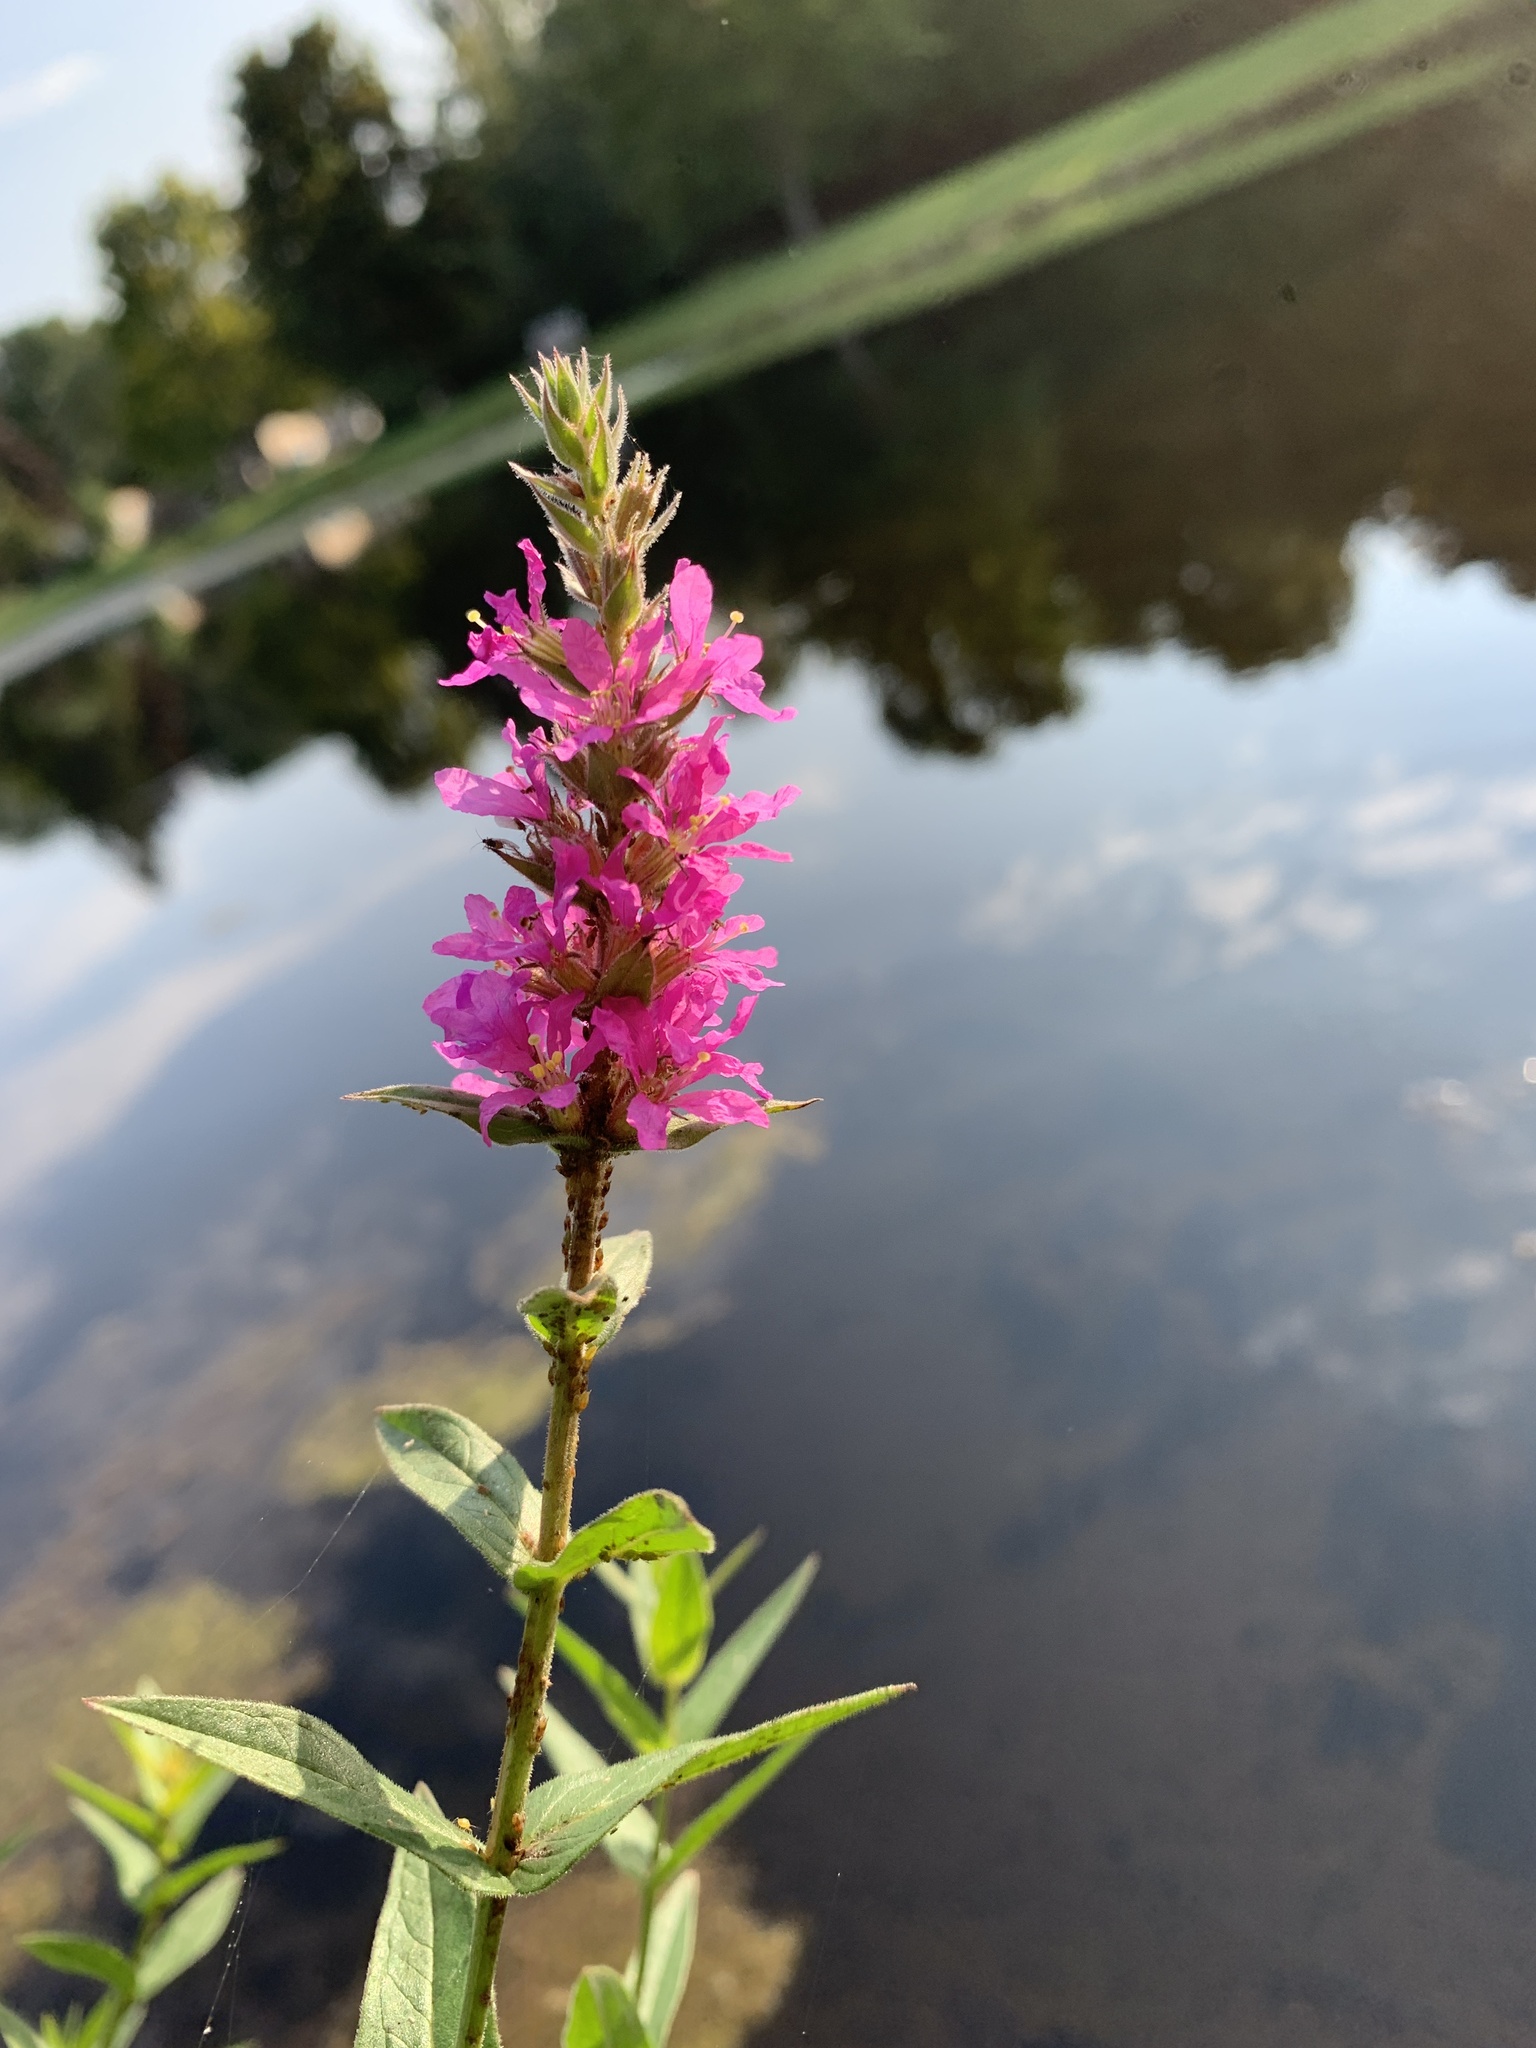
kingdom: Plantae
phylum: Tracheophyta
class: Magnoliopsida
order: Myrtales
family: Lythraceae
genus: Lythrum
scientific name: Lythrum salicaria
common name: Purple loosestrife
